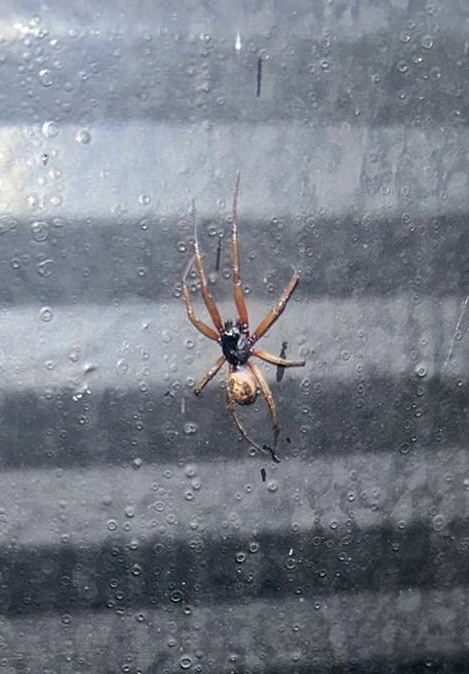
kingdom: Animalia
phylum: Arthropoda
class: Arachnida
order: Araneae
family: Theridiidae
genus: Steatoda
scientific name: Steatoda nobilis
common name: Cobweb weaver
